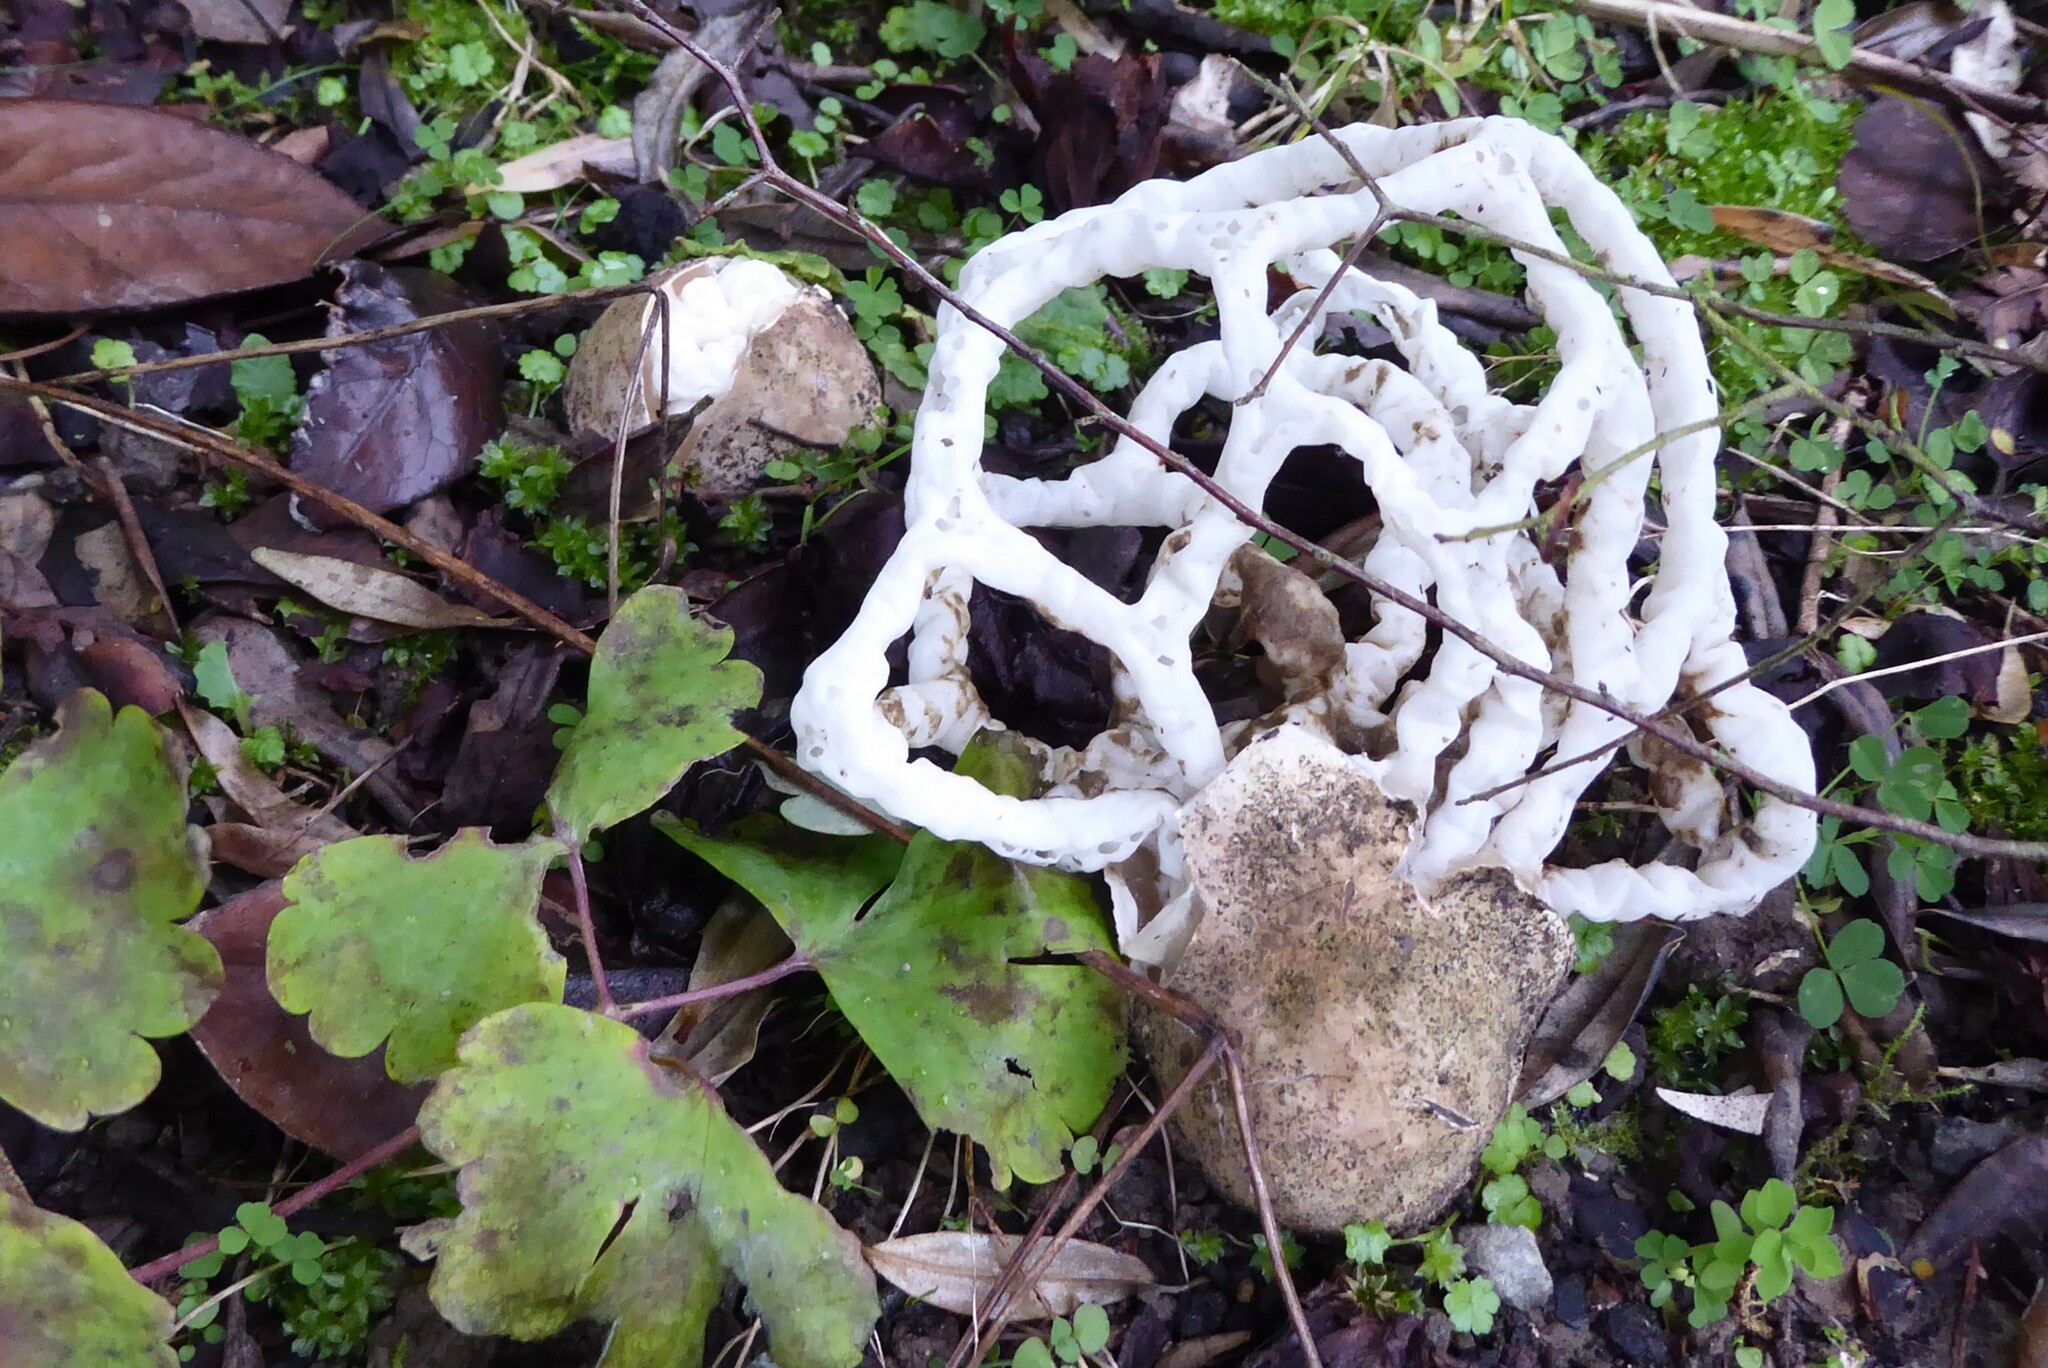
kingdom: Fungi
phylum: Basidiomycota
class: Agaricomycetes
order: Phallales
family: Phallaceae
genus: Ileodictyon
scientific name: Ileodictyon cibarium
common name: Basket fungus
